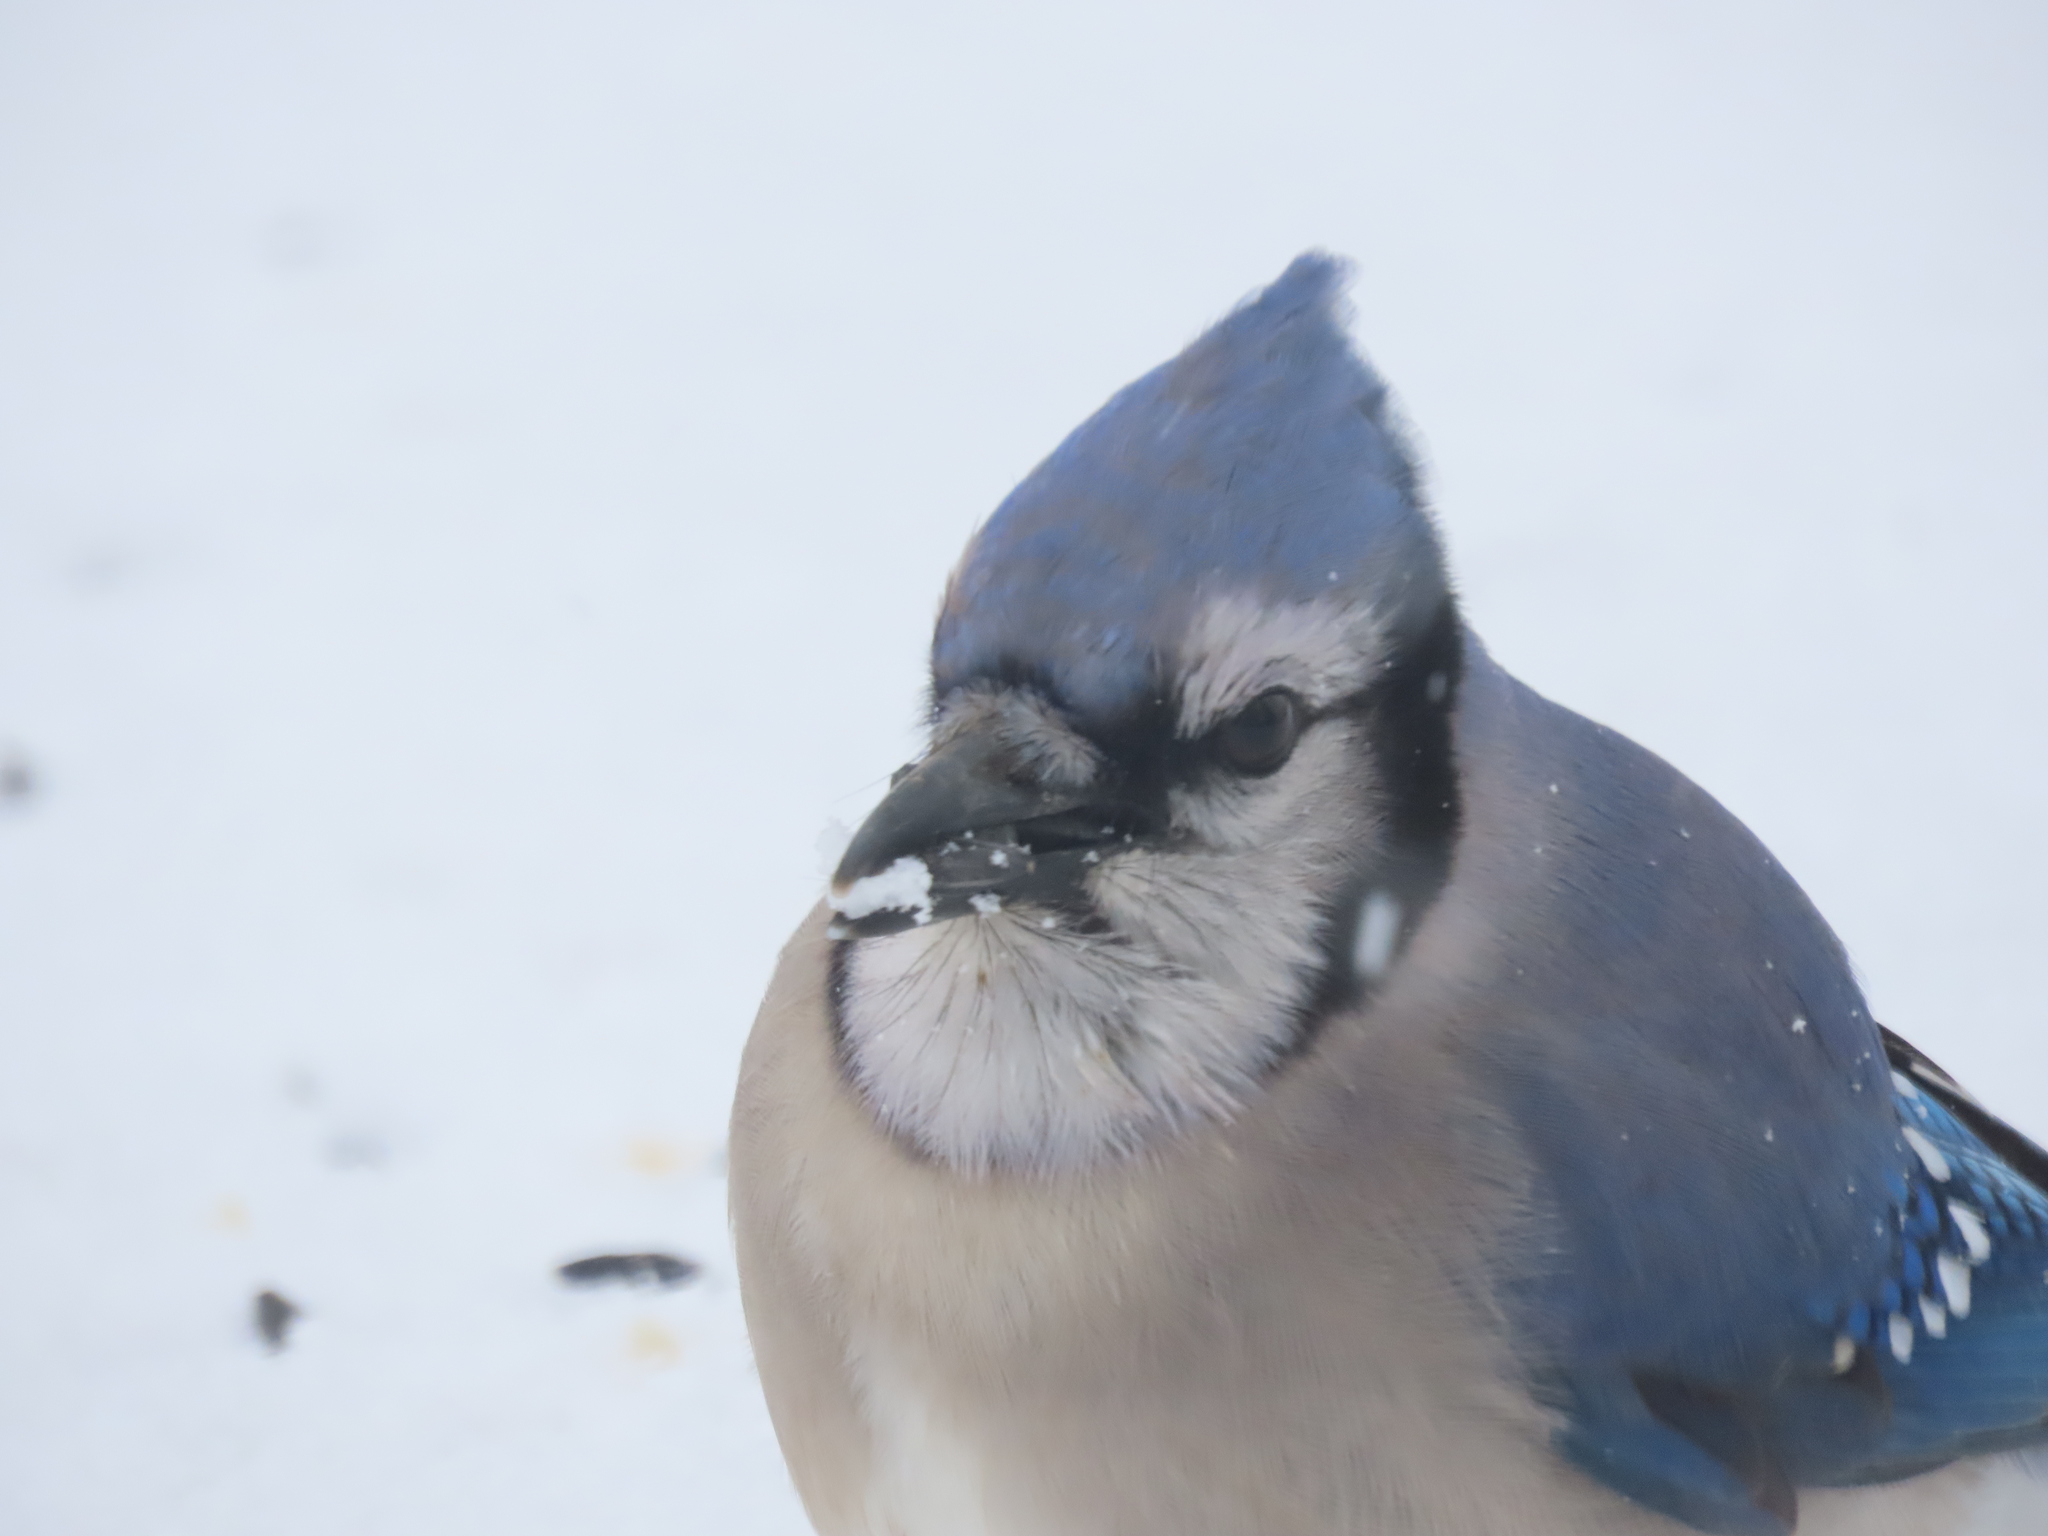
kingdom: Animalia
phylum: Chordata
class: Aves
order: Passeriformes
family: Corvidae
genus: Cyanocitta
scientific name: Cyanocitta cristata
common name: Blue jay
